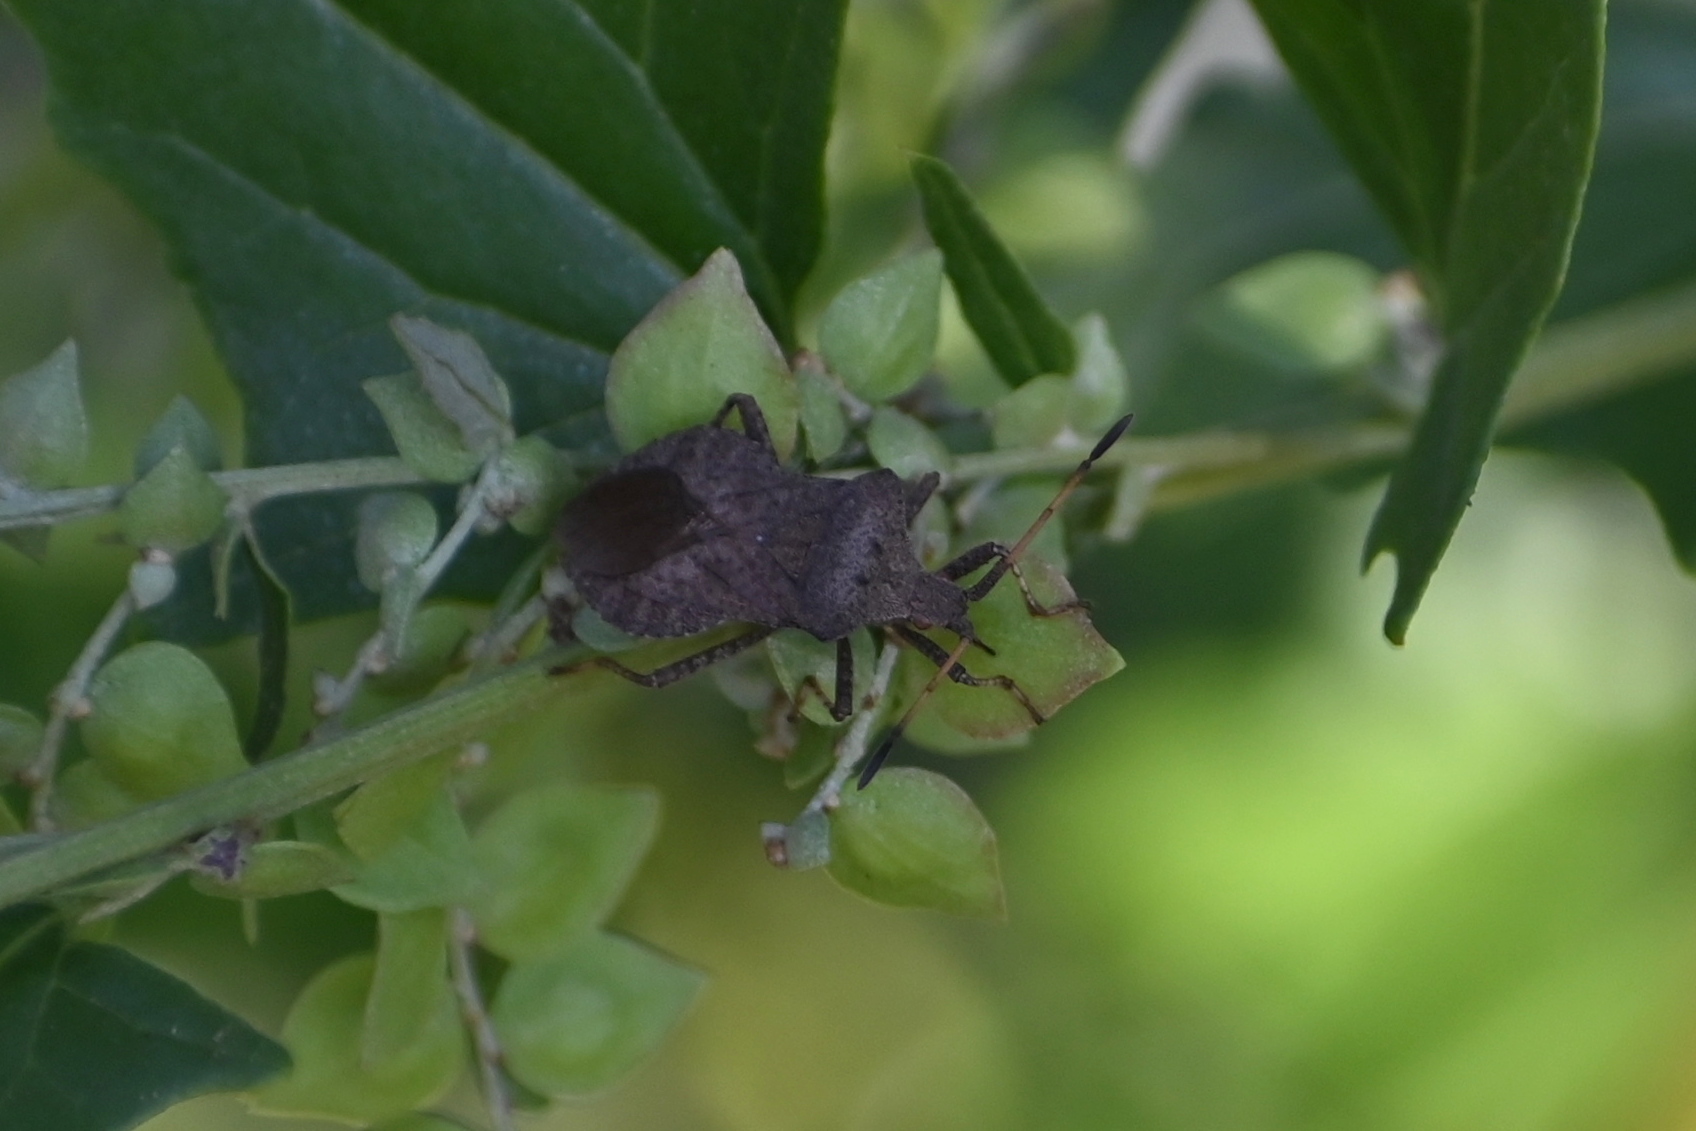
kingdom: Animalia
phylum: Arthropoda
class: Insecta
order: Hemiptera
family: Coreidae
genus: Coreus
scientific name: Coreus marginatus
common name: Dock bug
